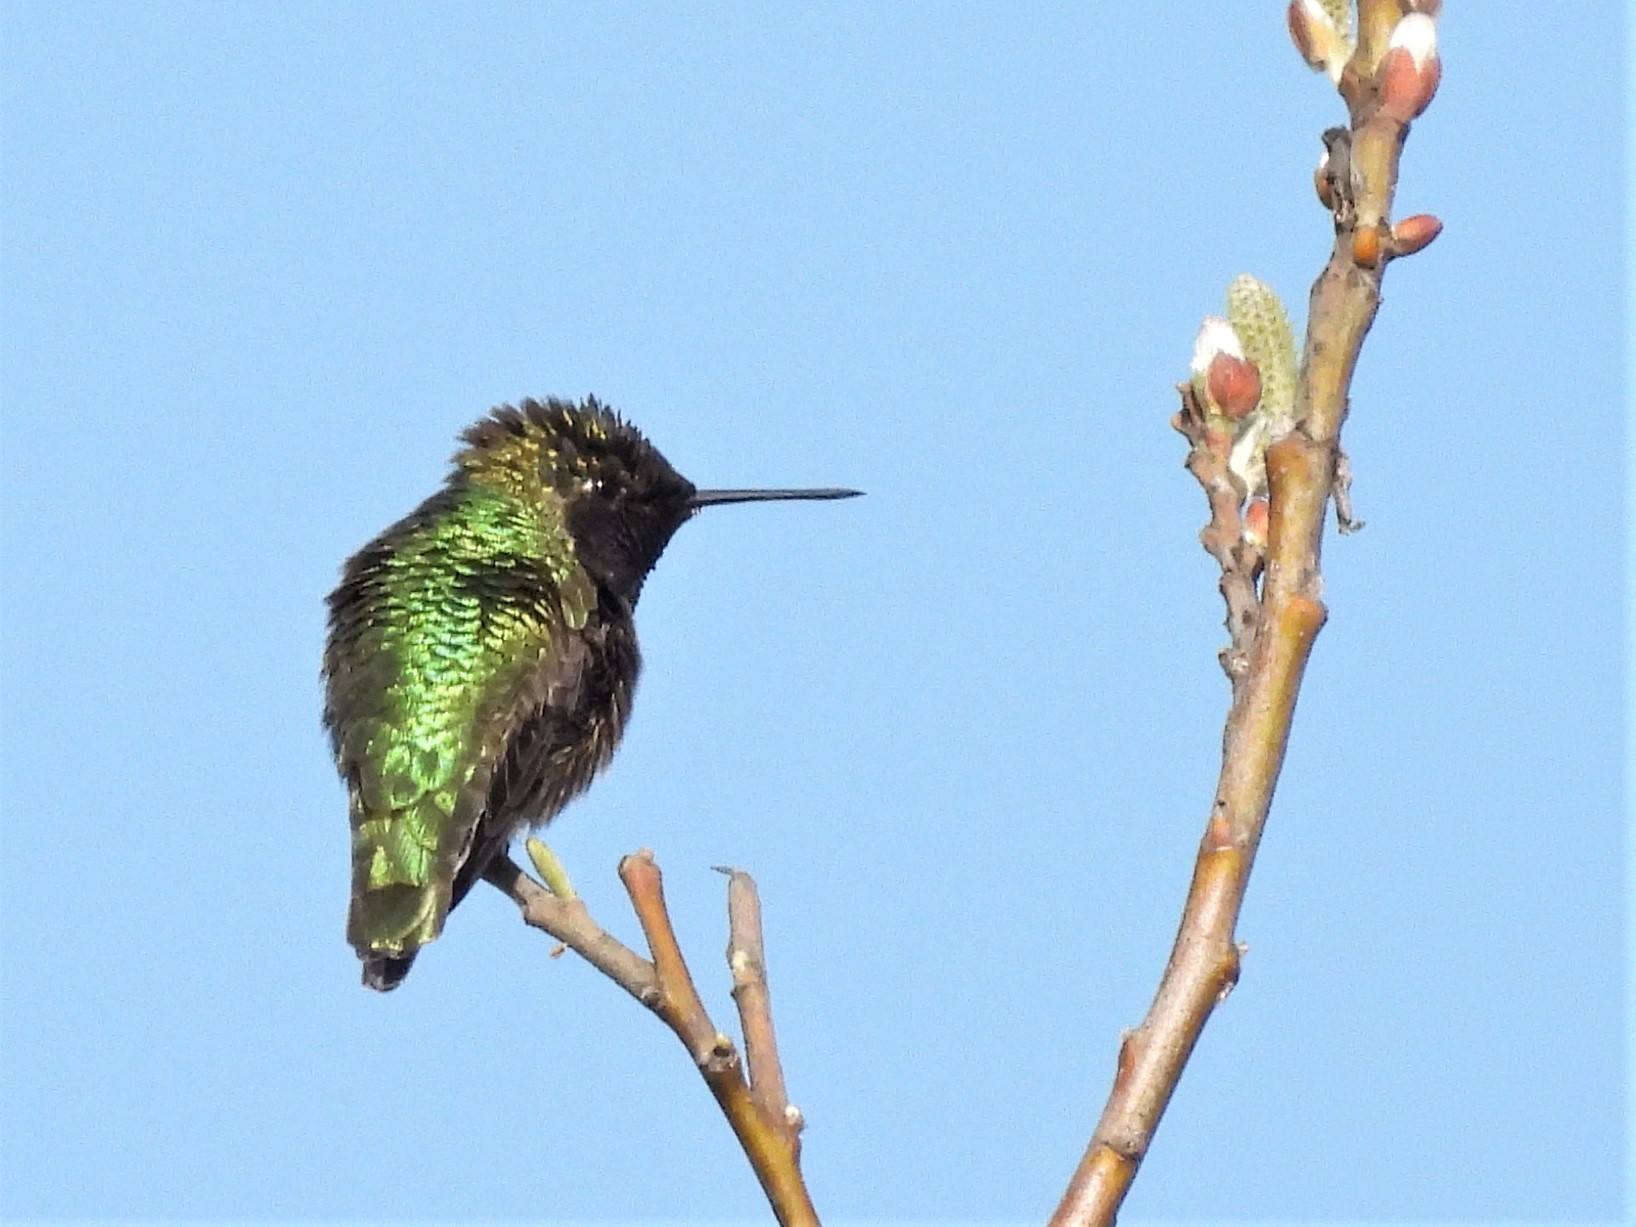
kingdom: Animalia
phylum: Chordata
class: Aves
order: Apodiformes
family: Trochilidae
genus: Calypte
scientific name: Calypte anna
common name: Anna's hummingbird
